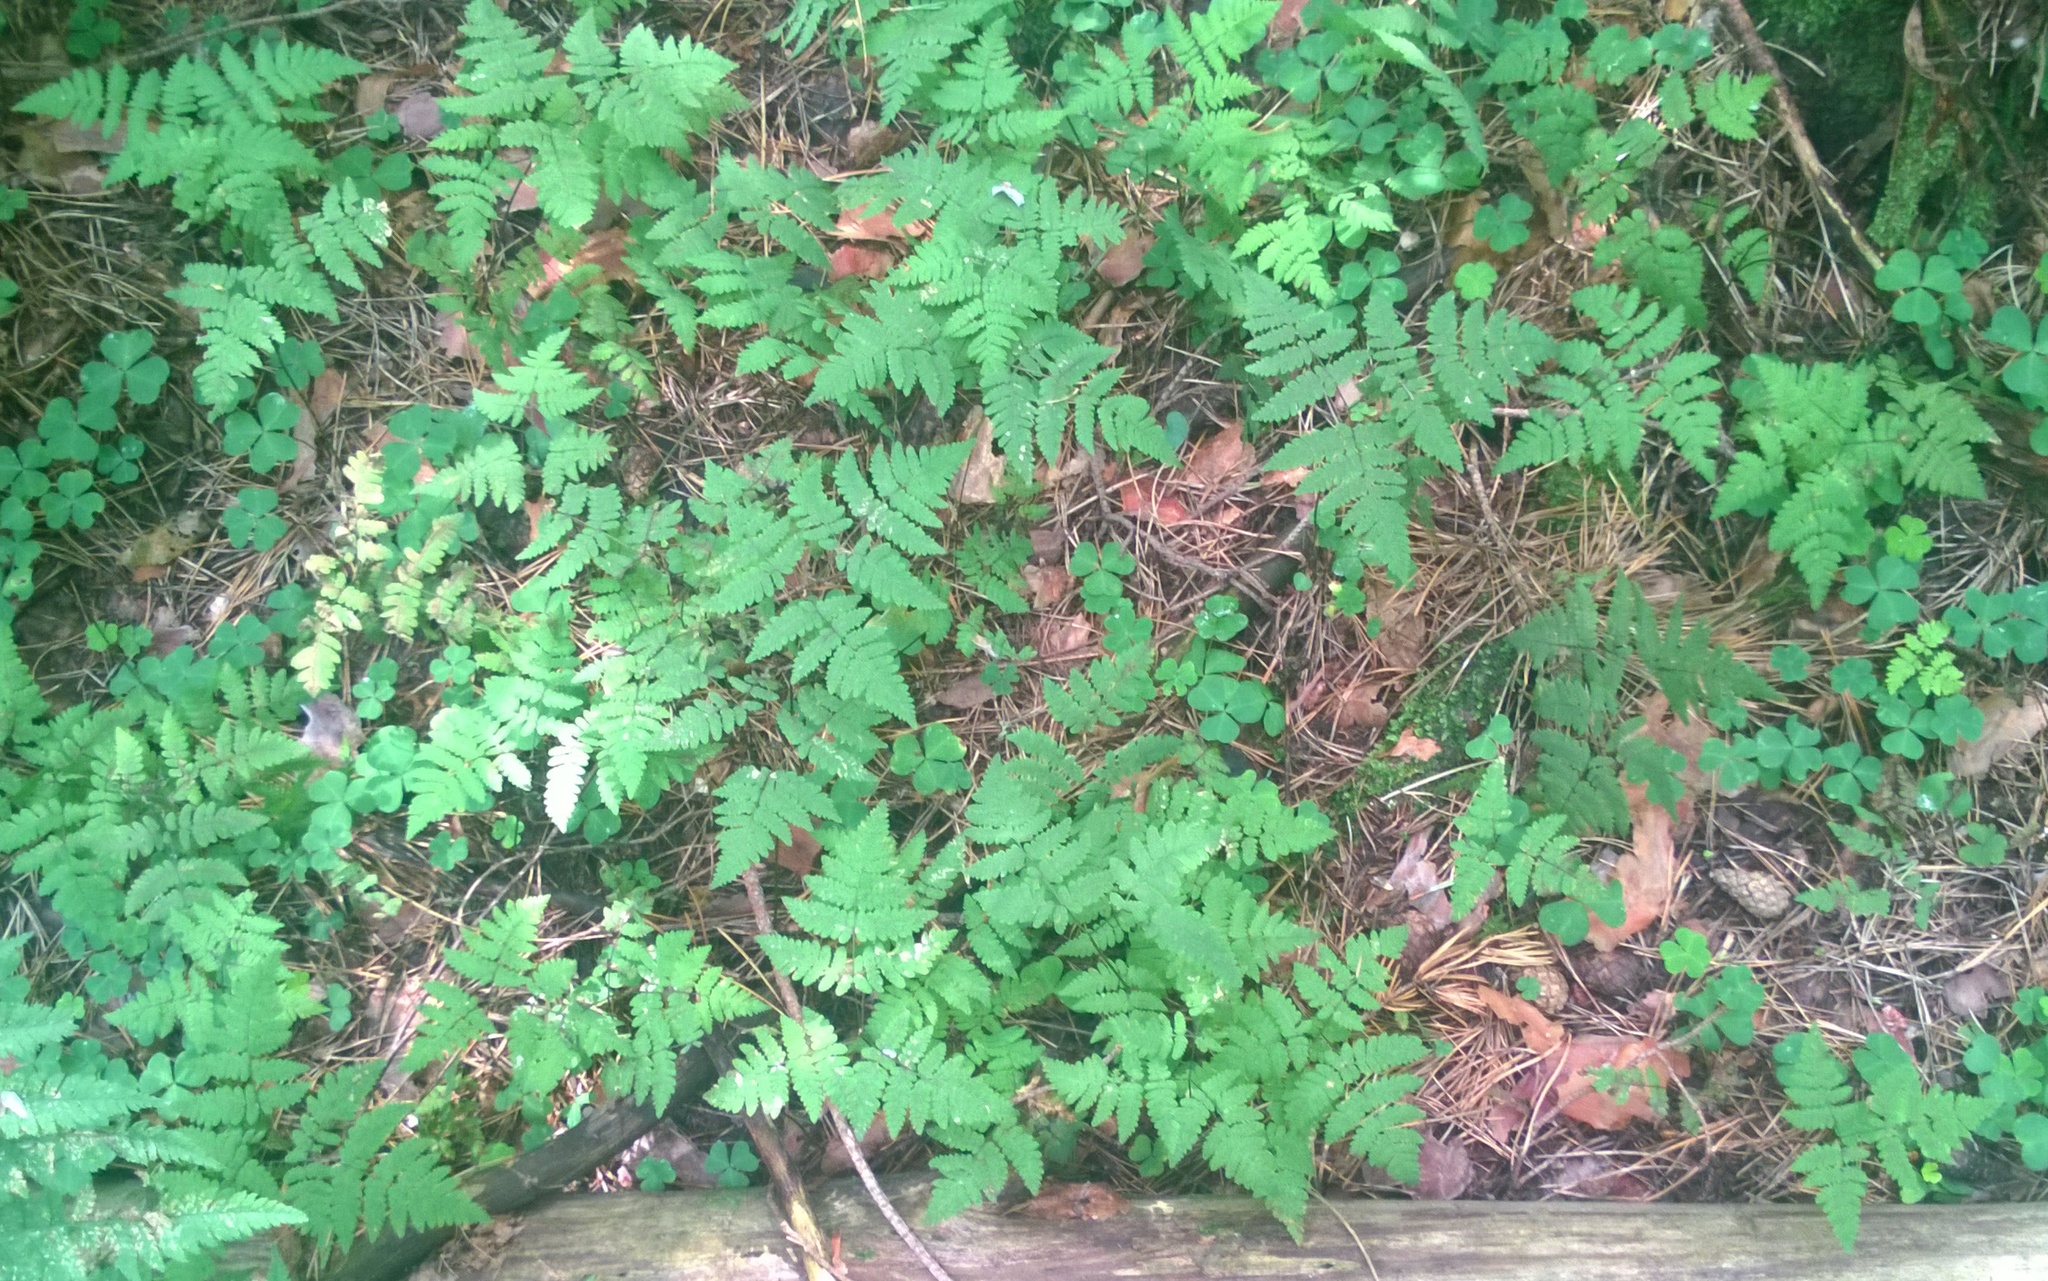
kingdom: Plantae
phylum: Tracheophyta
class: Polypodiopsida
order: Polypodiales
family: Cystopteridaceae
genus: Gymnocarpium
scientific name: Gymnocarpium dryopteris
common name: Oak fern
